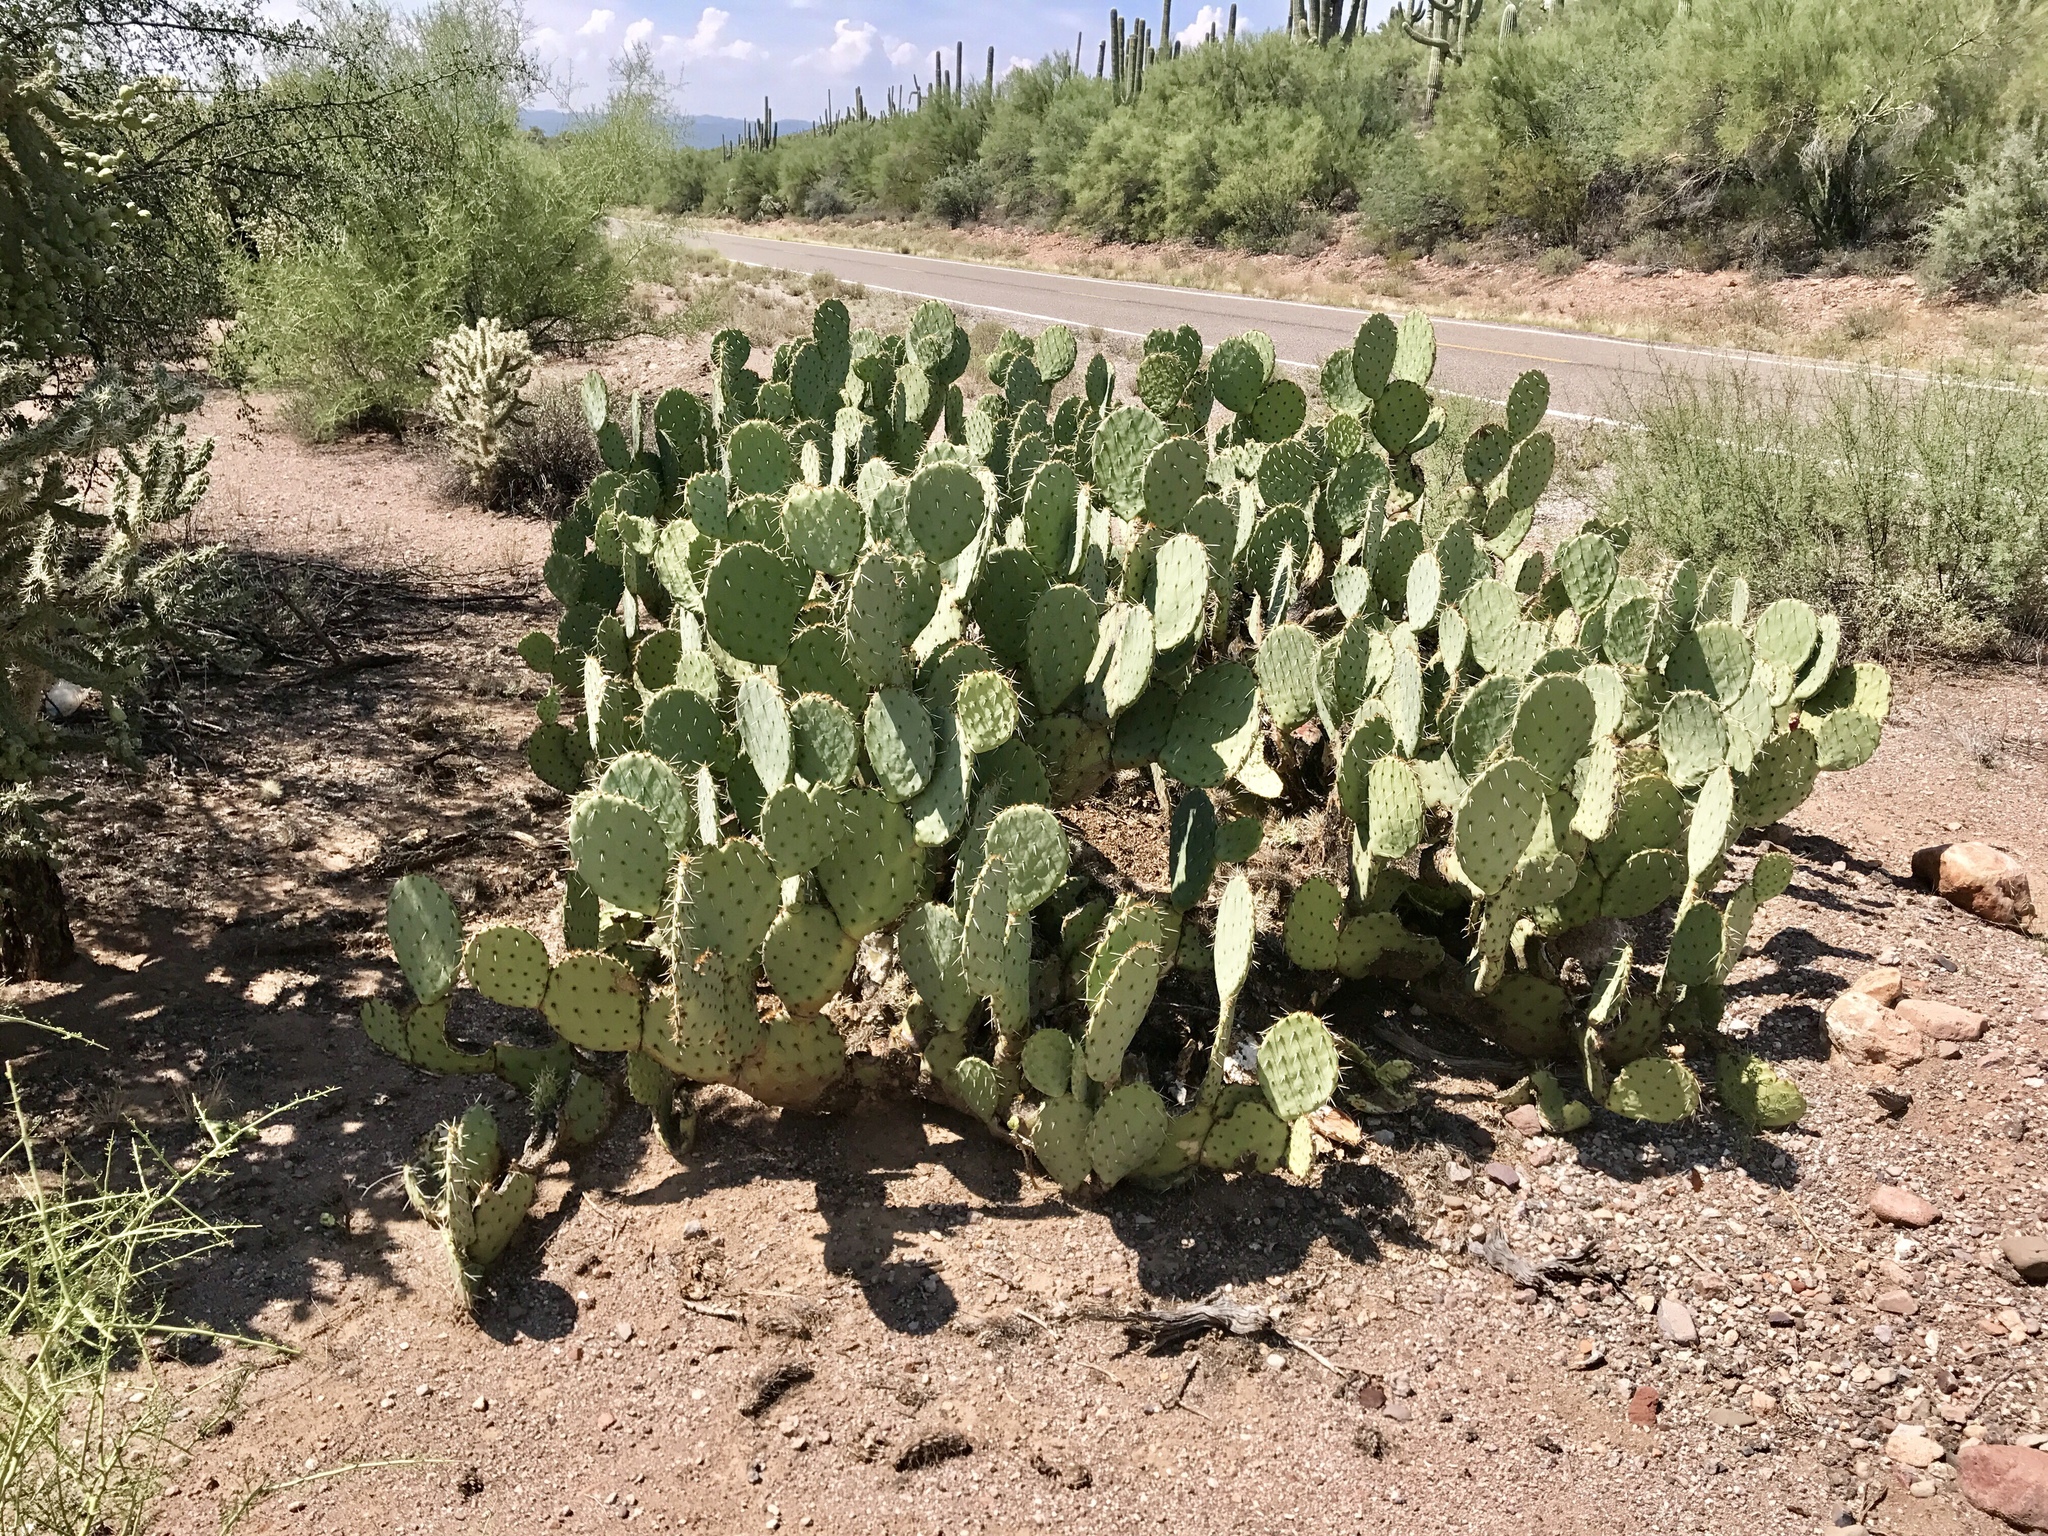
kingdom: Plantae
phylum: Tracheophyta
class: Magnoliopsida
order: Caryophyllales
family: Cactaceae
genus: Opuntia
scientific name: Opuntia engelmannii
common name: Cactus-apple
